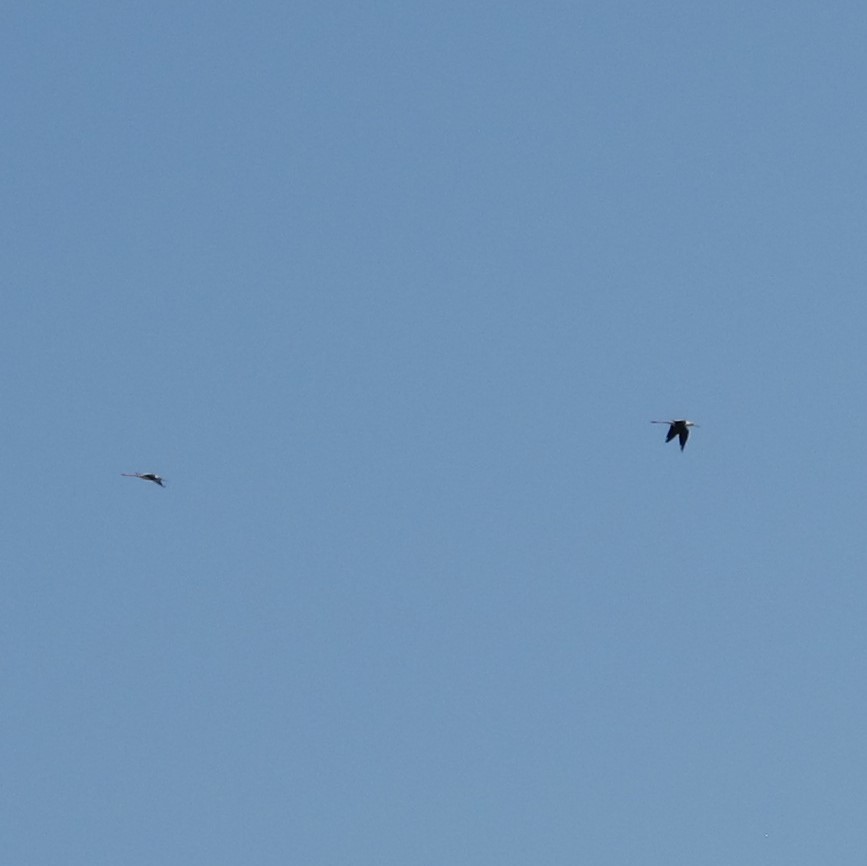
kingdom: Animalia
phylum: Chordata
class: Aves
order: Charadriiformes
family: Recurvirostridae
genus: Himantopus
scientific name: Himantopus himantopus
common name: Black-winged stilt
